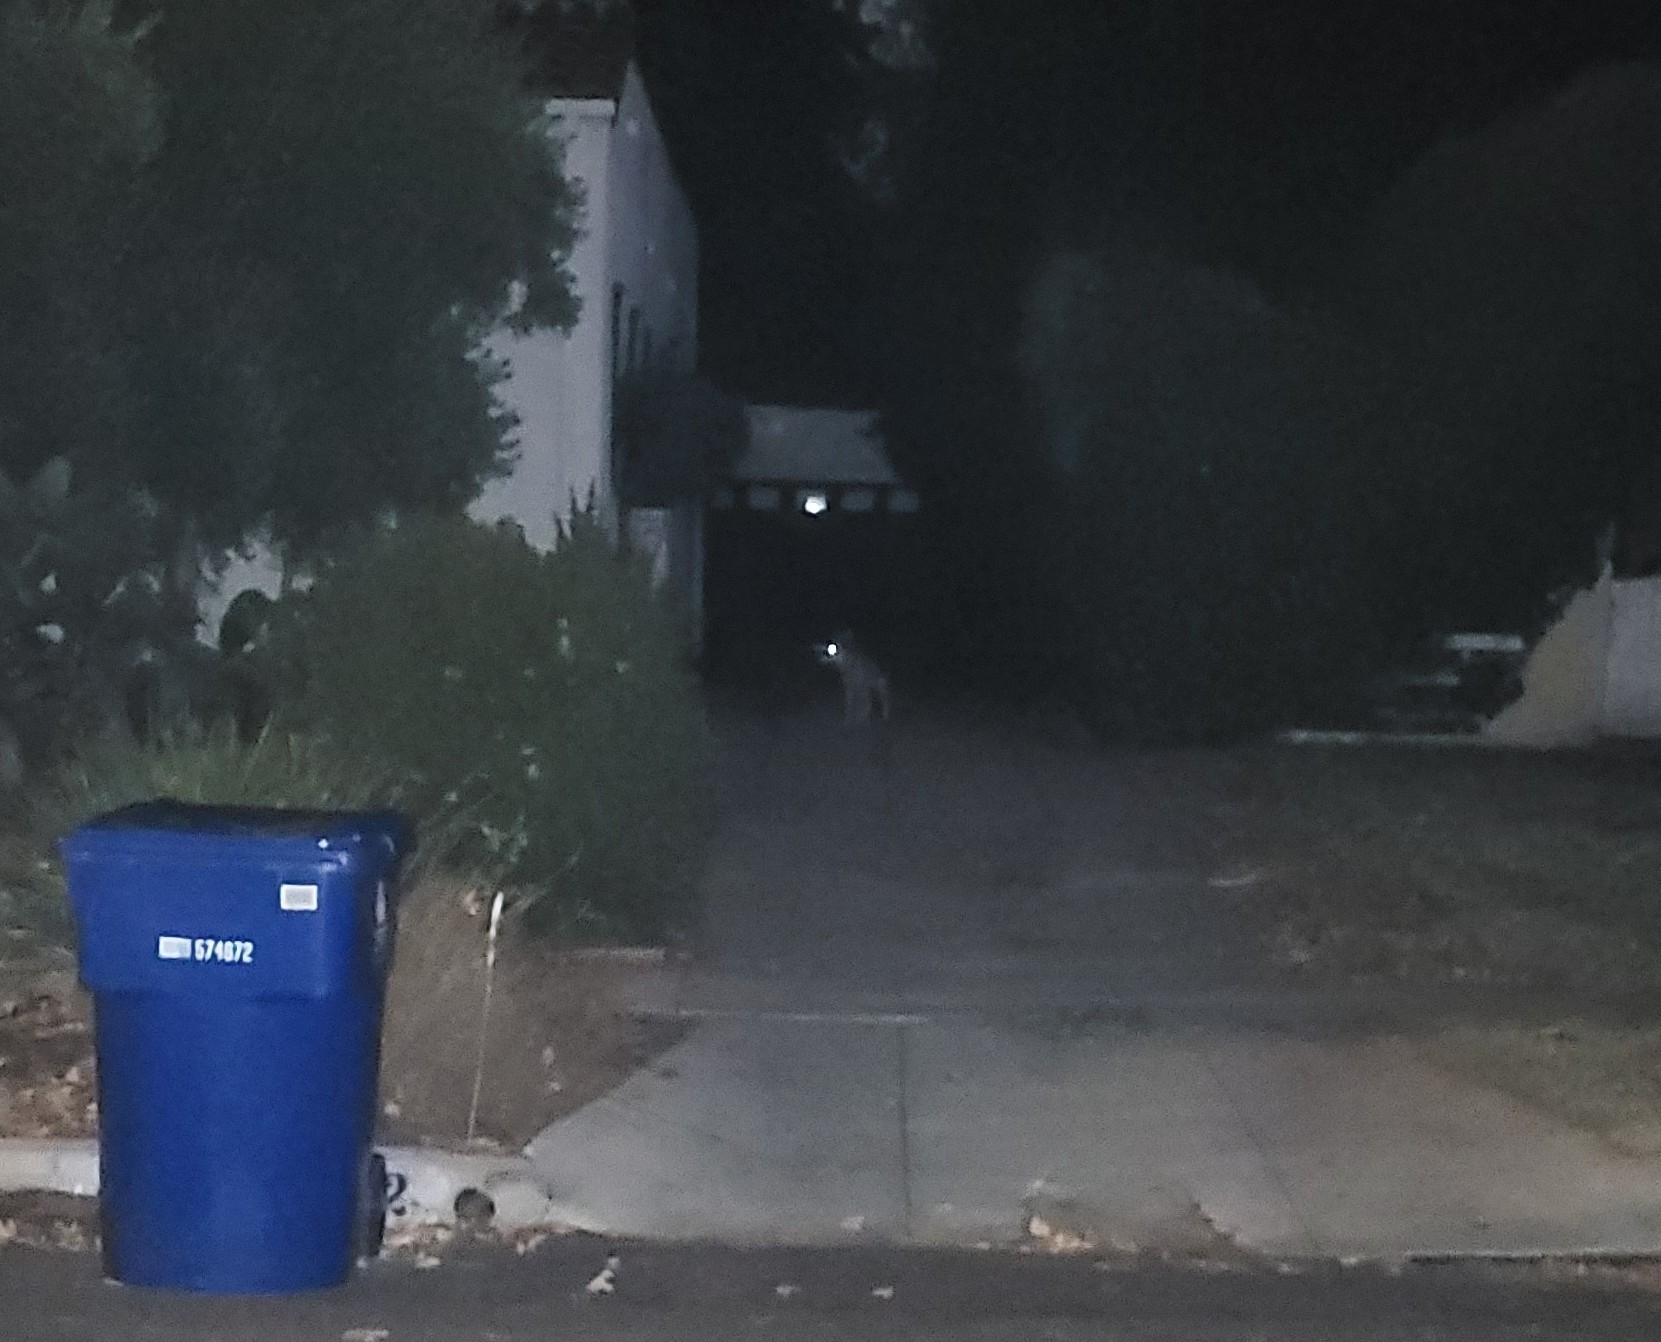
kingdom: Animalia
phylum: Chordata
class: Mammalia
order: Carnivora
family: Canidae
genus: Canis
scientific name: Canis latrans
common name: Coyote
